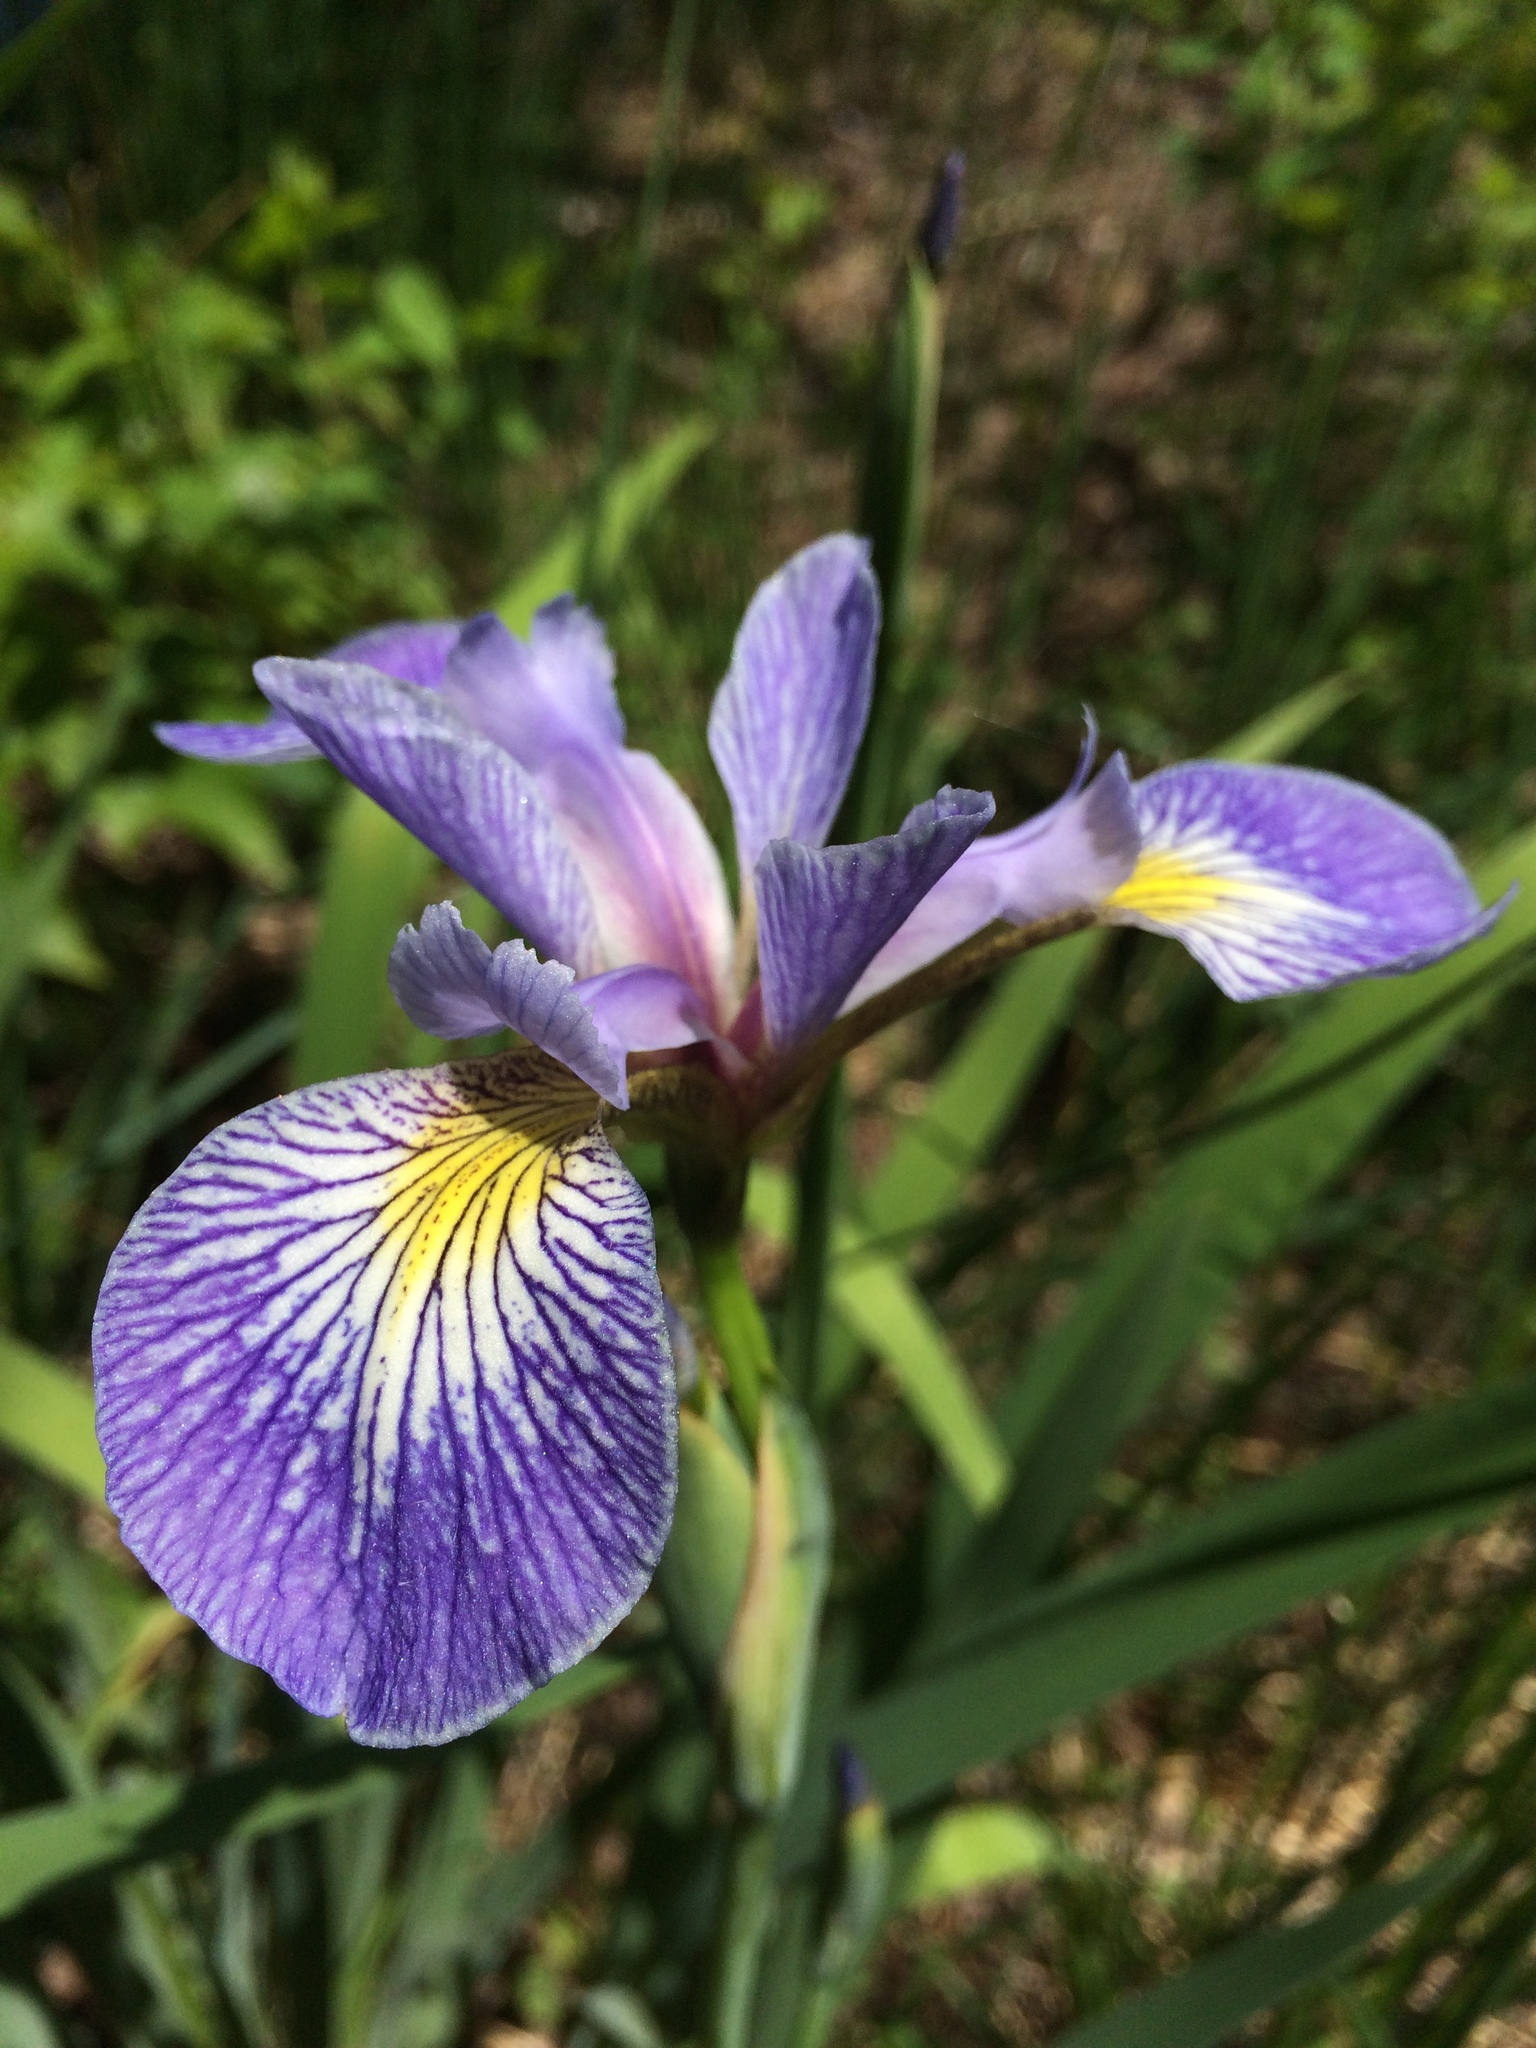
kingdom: Plantae
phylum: Tracheophyta
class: Liliopsida
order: Asparagales
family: Iridaceae
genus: Iris
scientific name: Iris versicolor
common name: Purple iris
